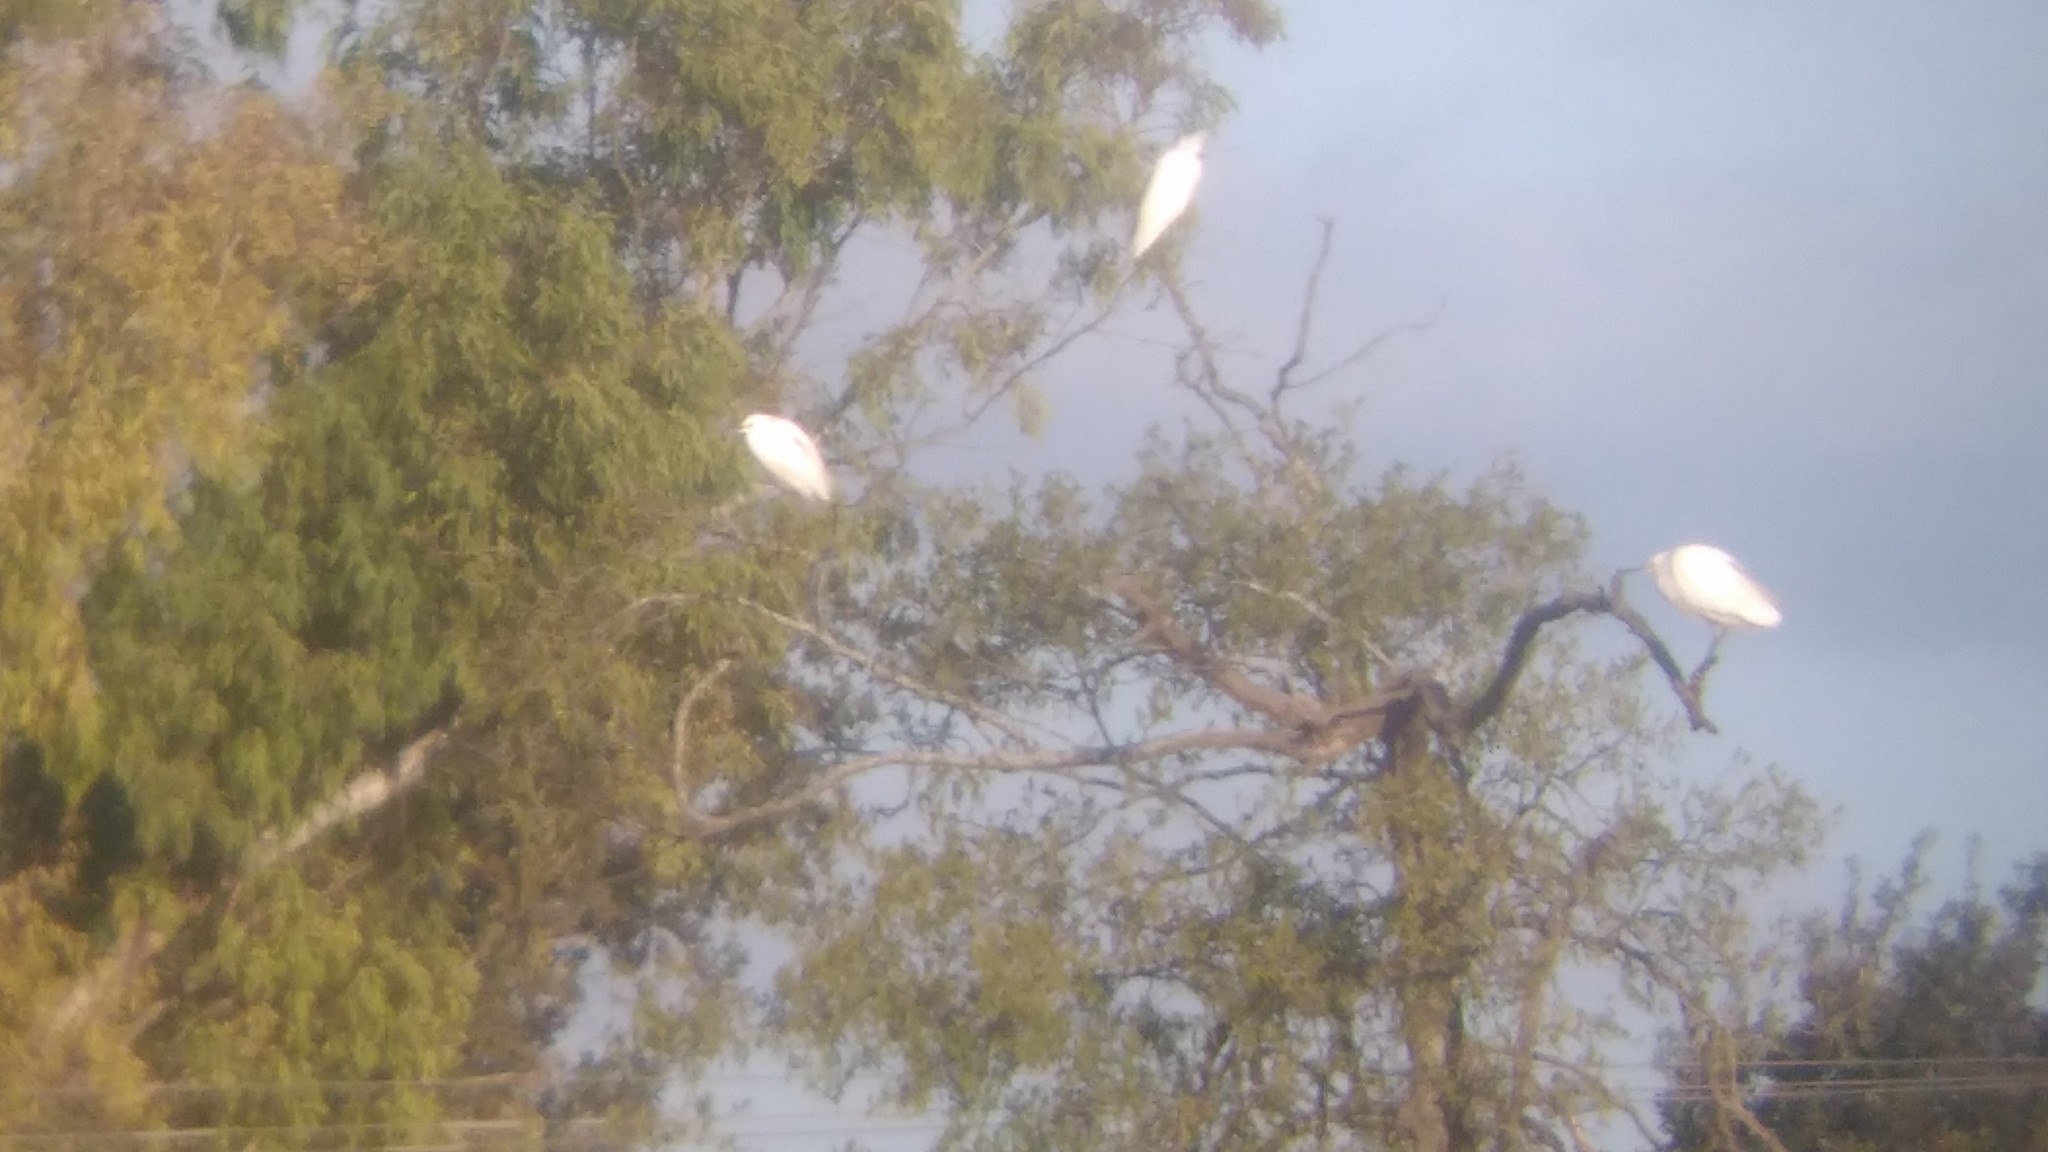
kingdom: Animalia
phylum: Chordata
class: Aves
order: Pelecaniformes
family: Ardeidae
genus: Egretta
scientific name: Egretta thula
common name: Snowy egret
